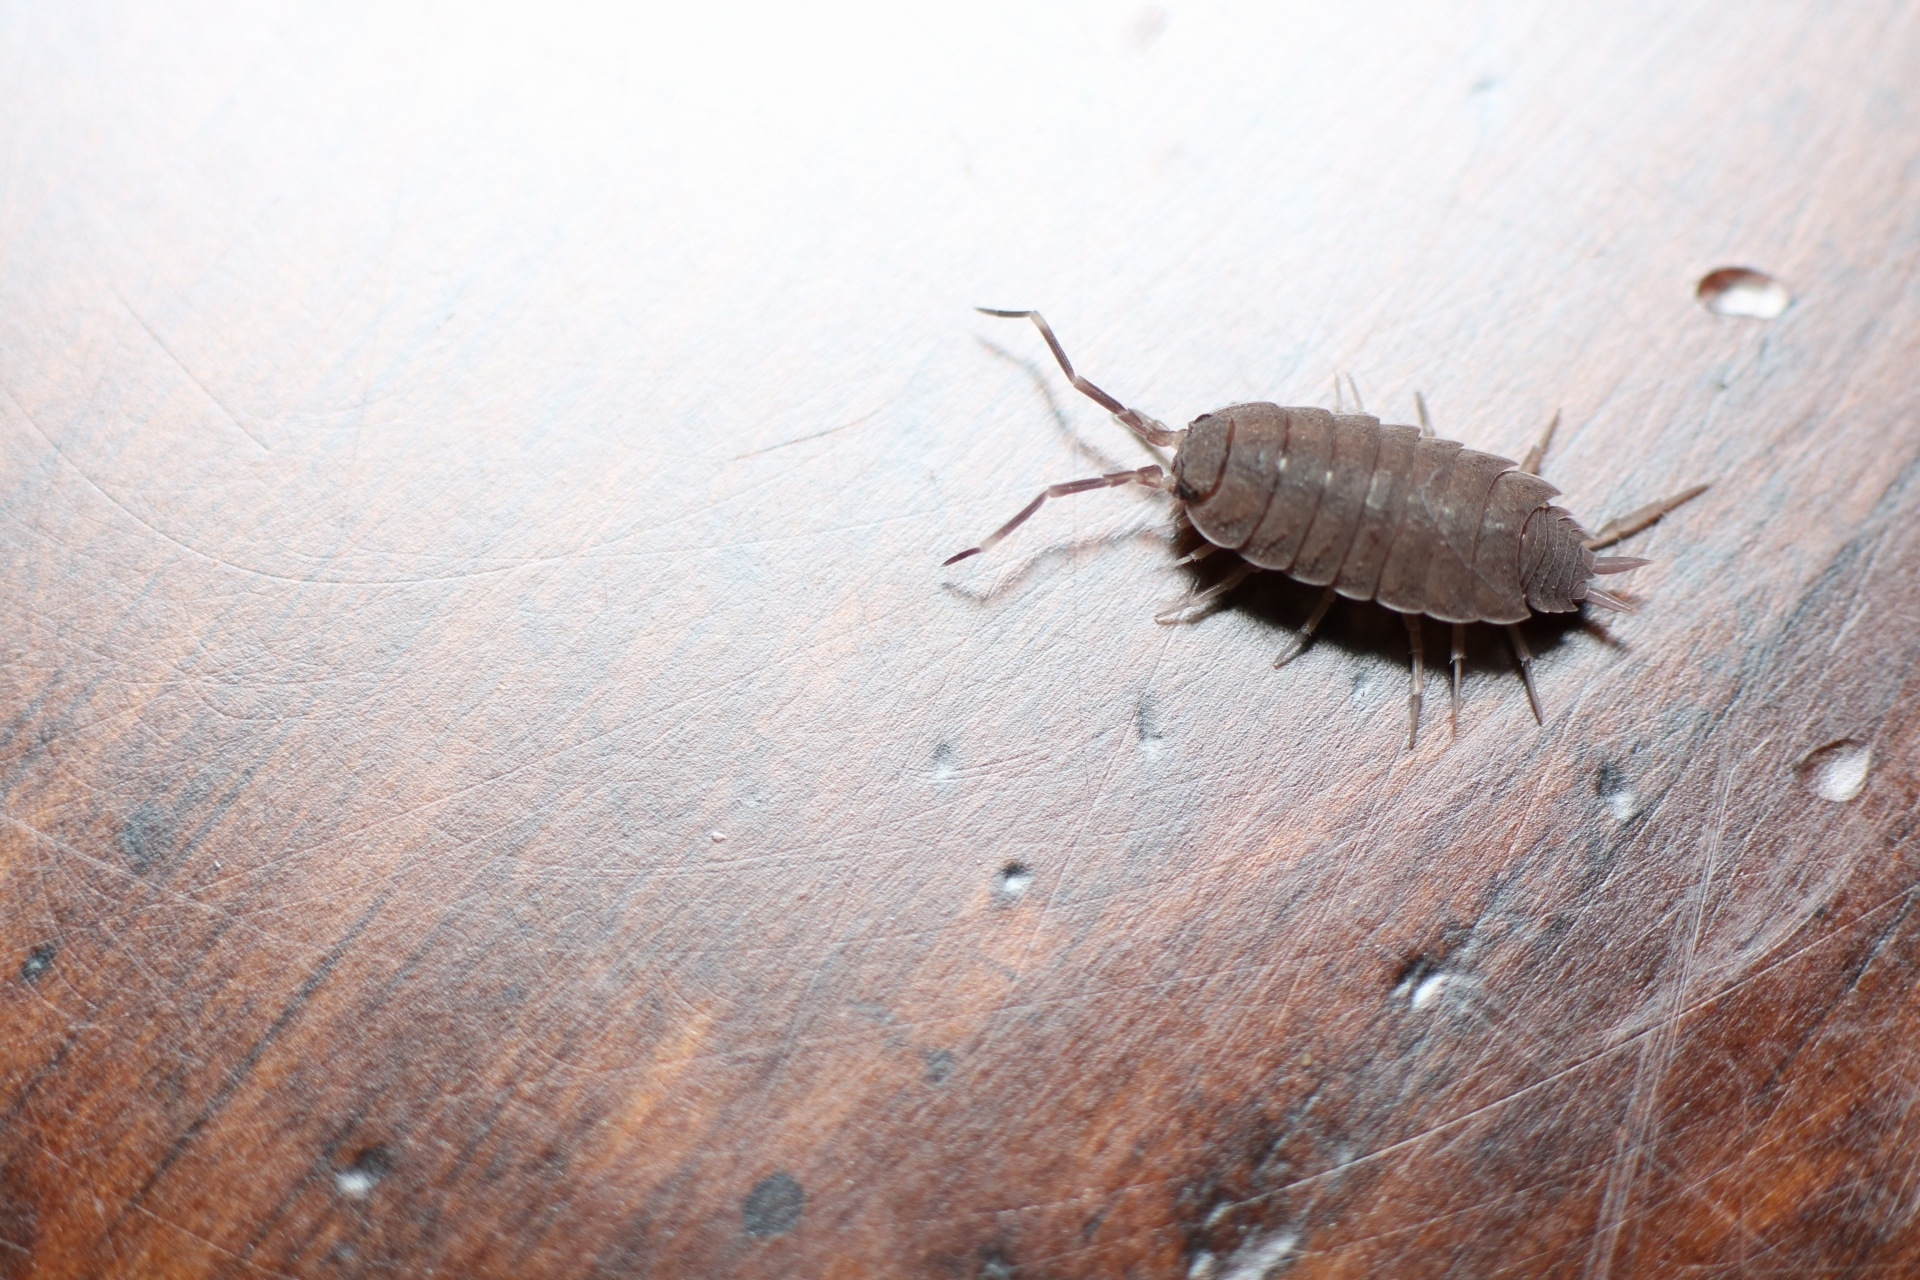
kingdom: Animalia
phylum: Arthropoda
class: Malacostraca
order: Isopoda
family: Porcellionidae
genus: Porcellionides
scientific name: Porcellionides
